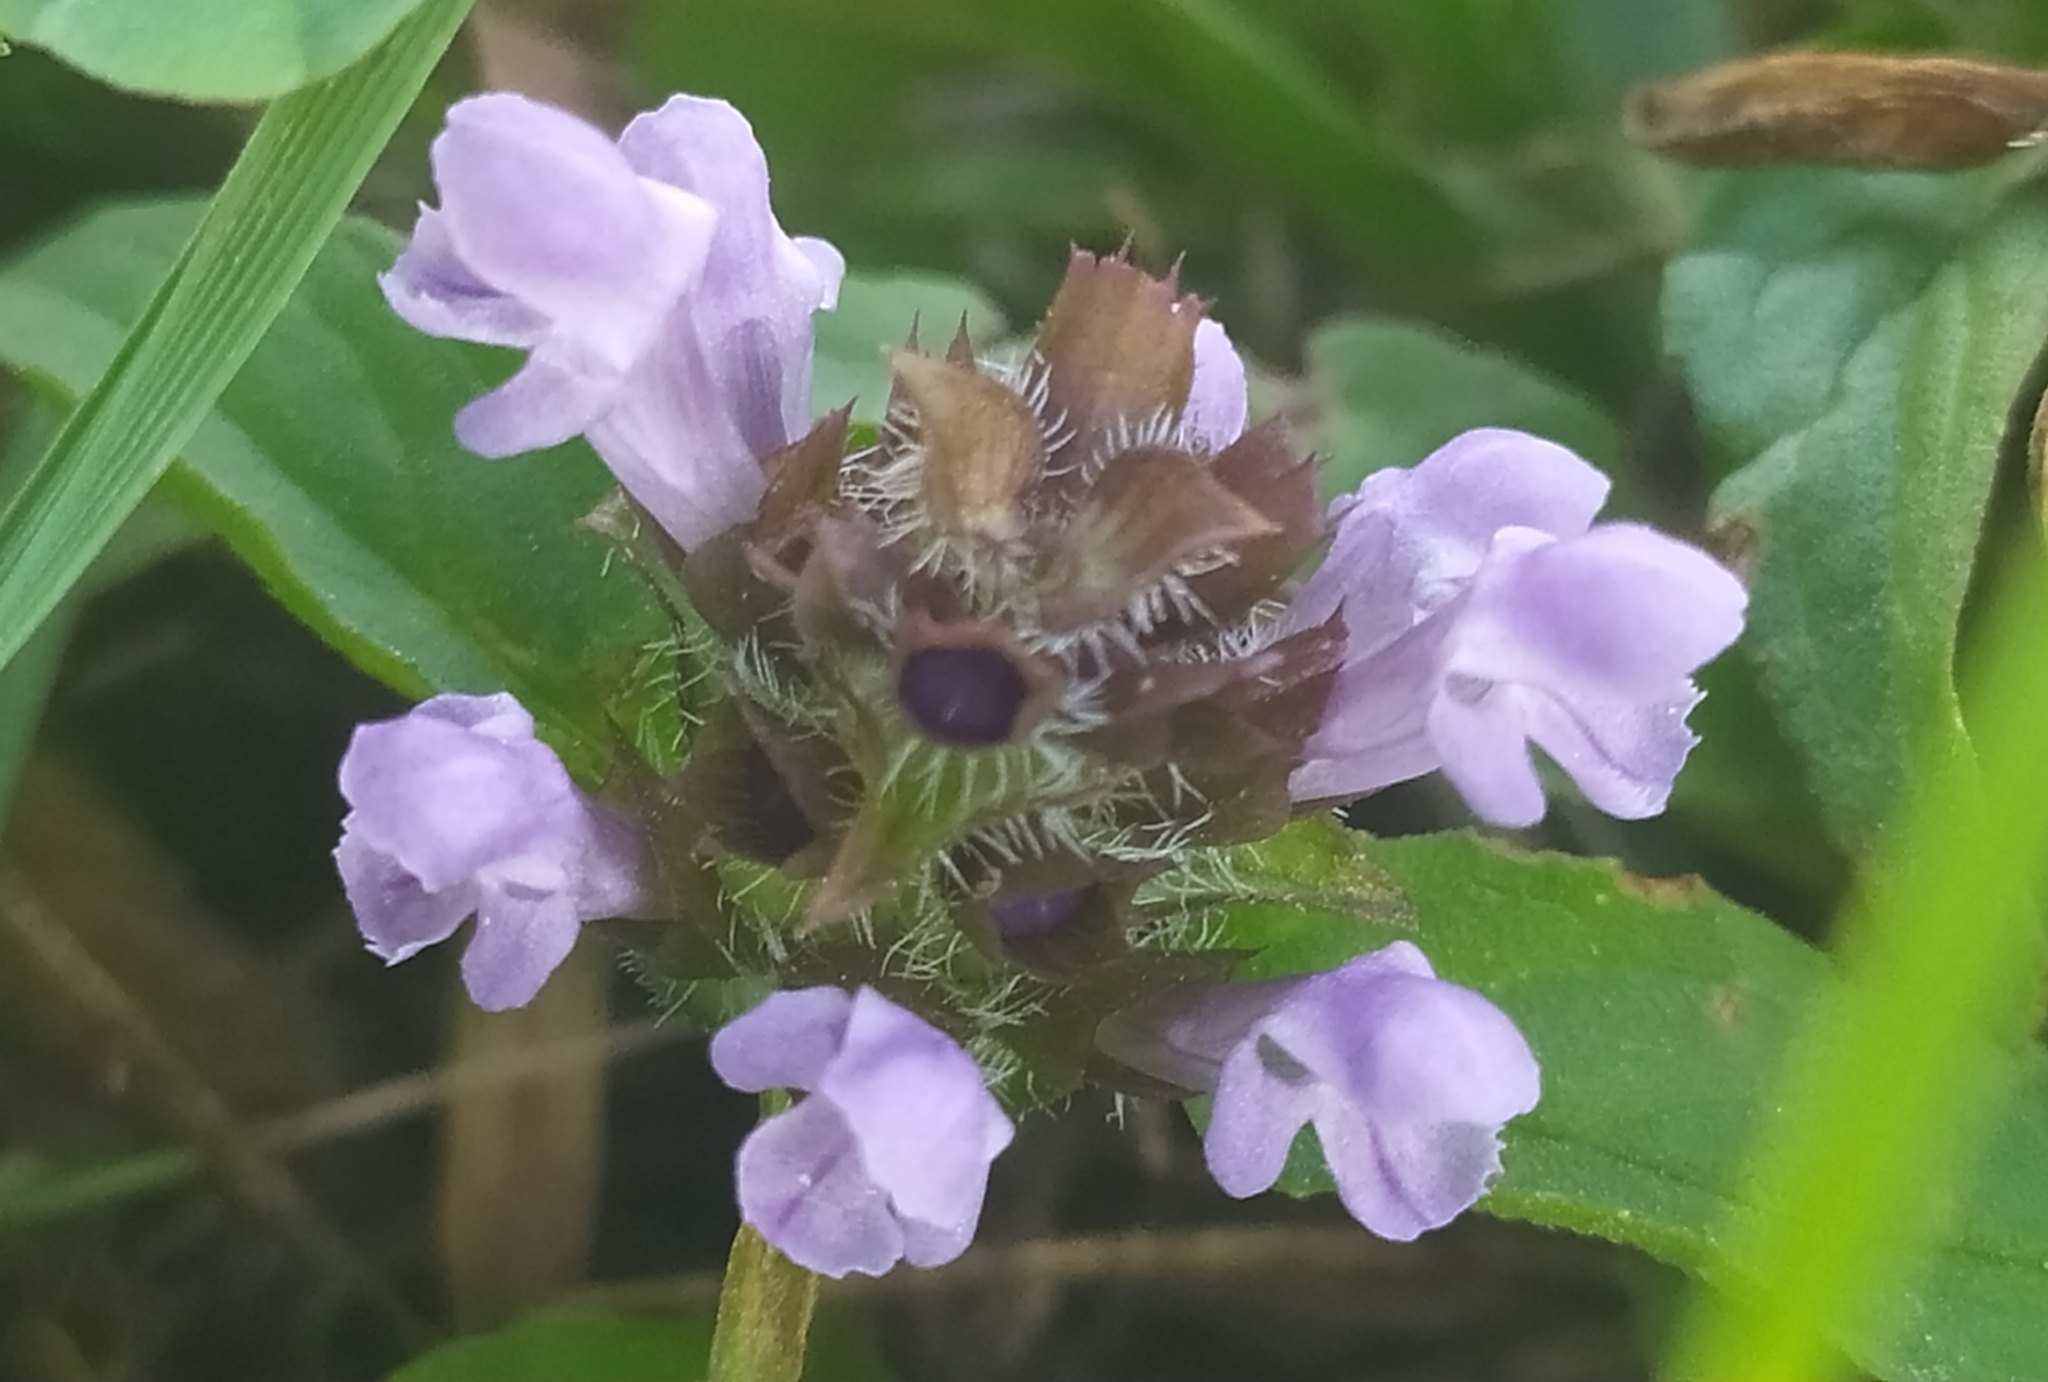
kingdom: Plantae
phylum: Tracheophyta
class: Magnoliopsida
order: Lamiales
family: Lamiaceae
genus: Prunella
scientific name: Prunella vulgaris
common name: Heal-all
